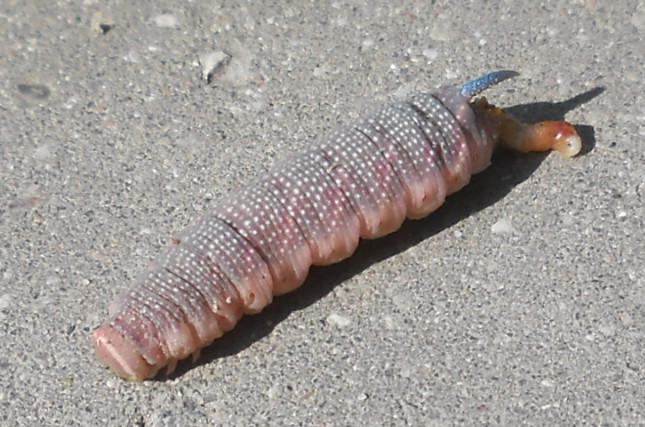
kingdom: Animalia
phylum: Arthropoda
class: Insecta
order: Lepidoptera
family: Sphingidae
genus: Mimas
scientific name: Mimas tiliae
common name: Lime hawk-moth
